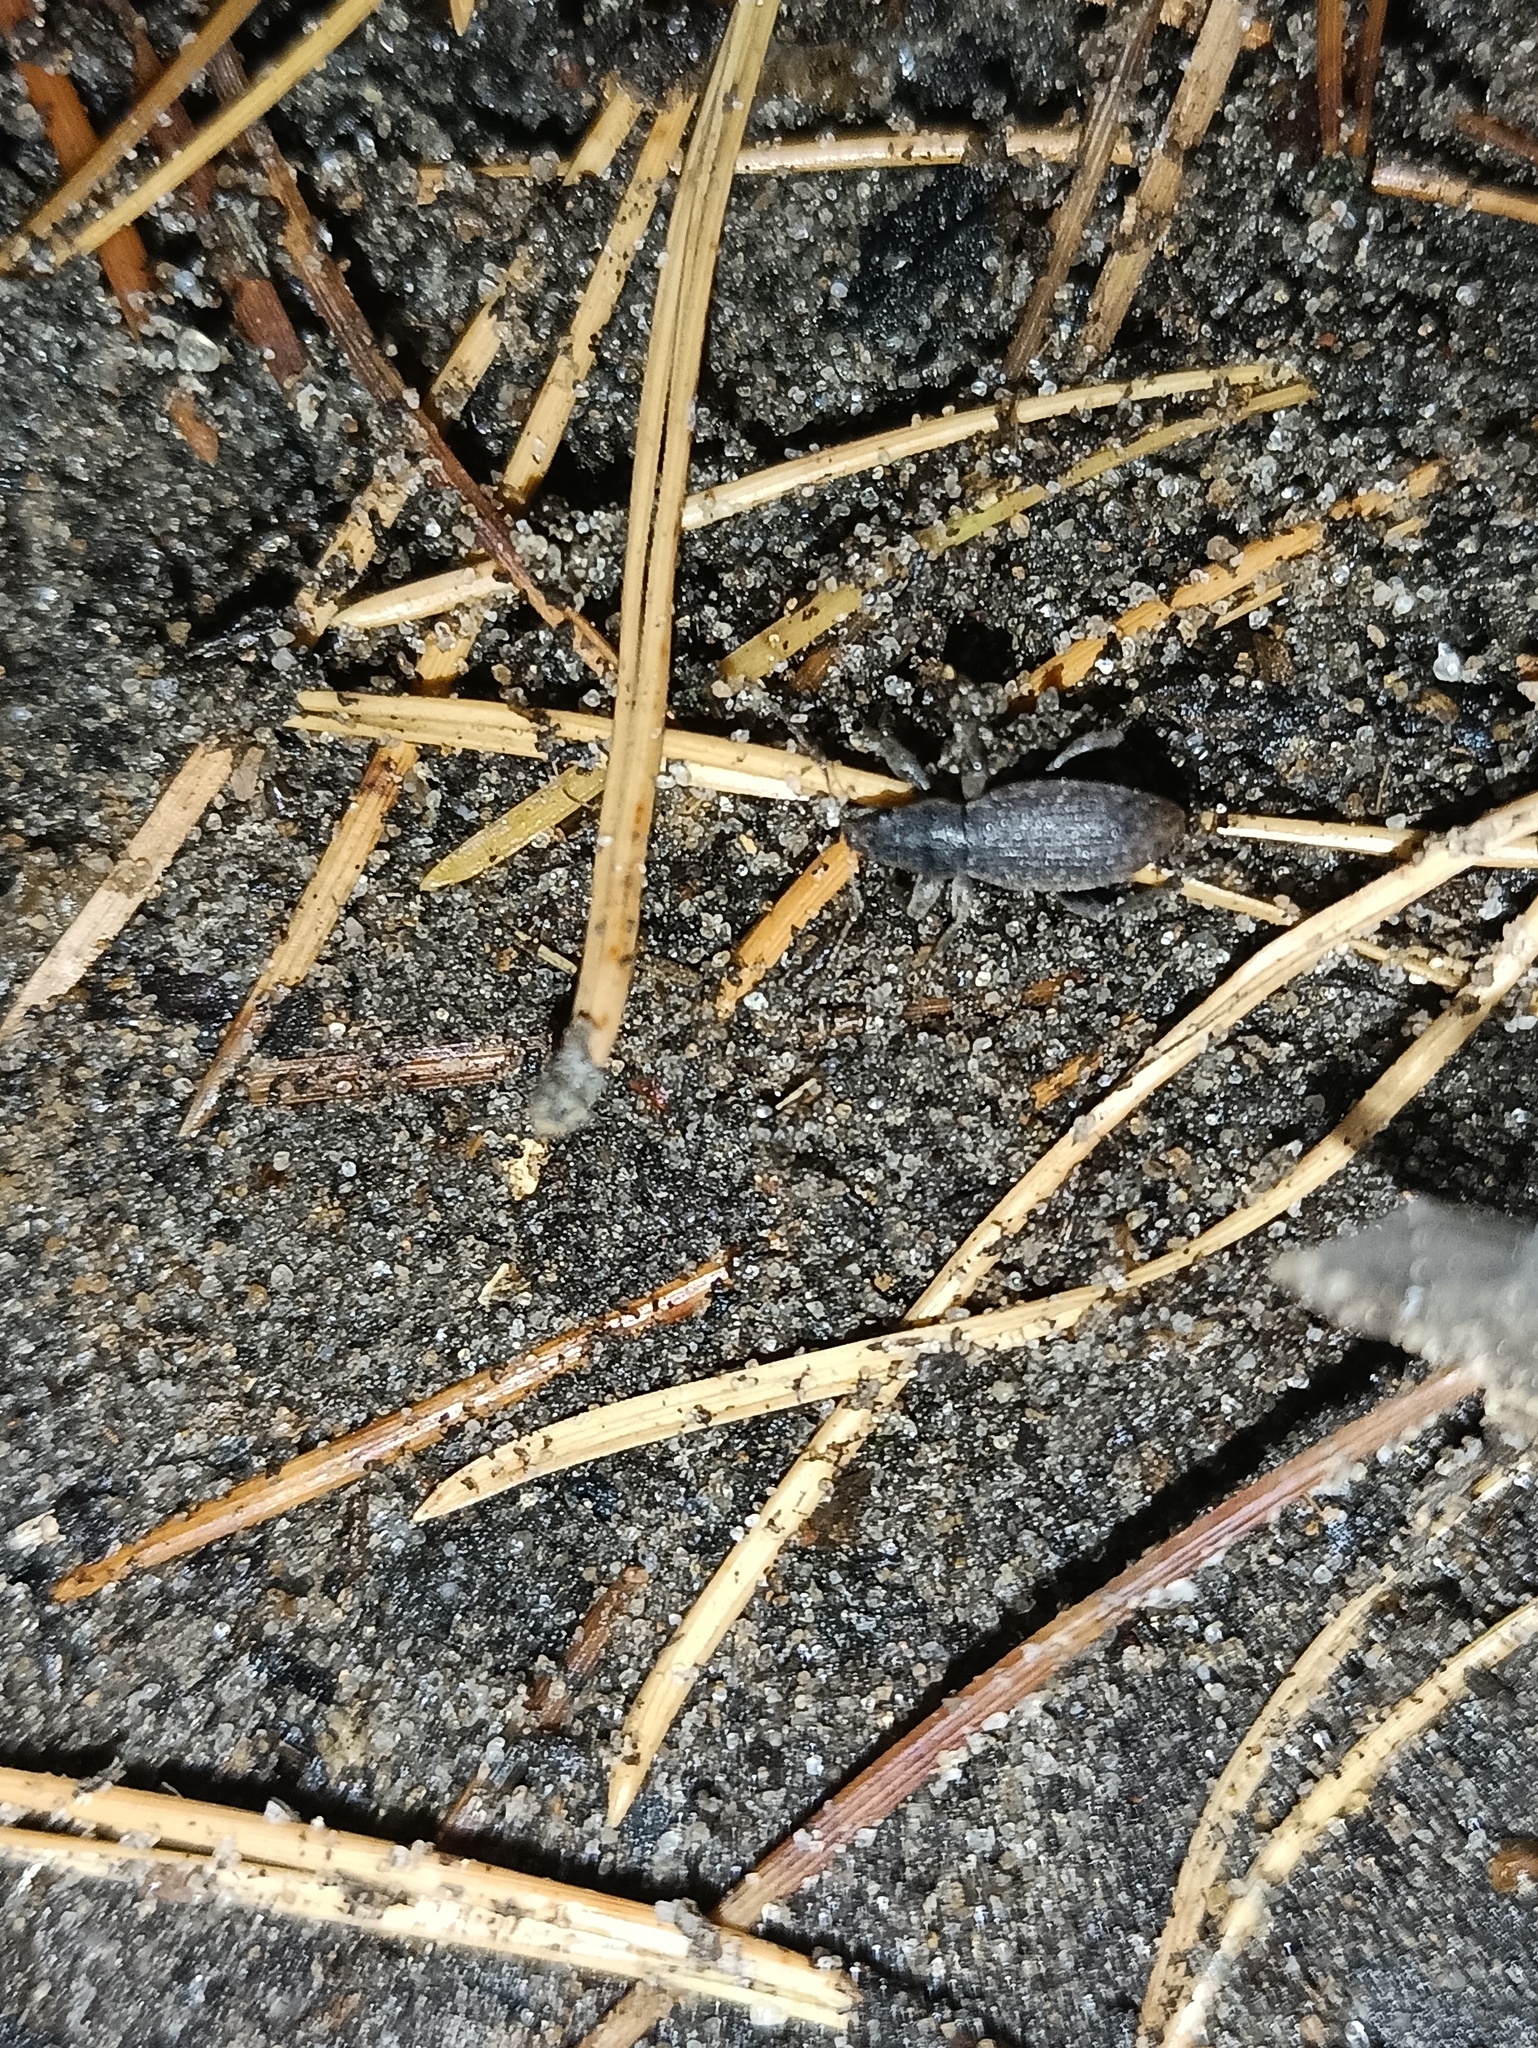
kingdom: Animalia
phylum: Arthropoda
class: Insecta
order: Coleoptera
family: Curculionidae
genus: Brachyderes
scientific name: Brachyderes incanus
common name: Weevil
